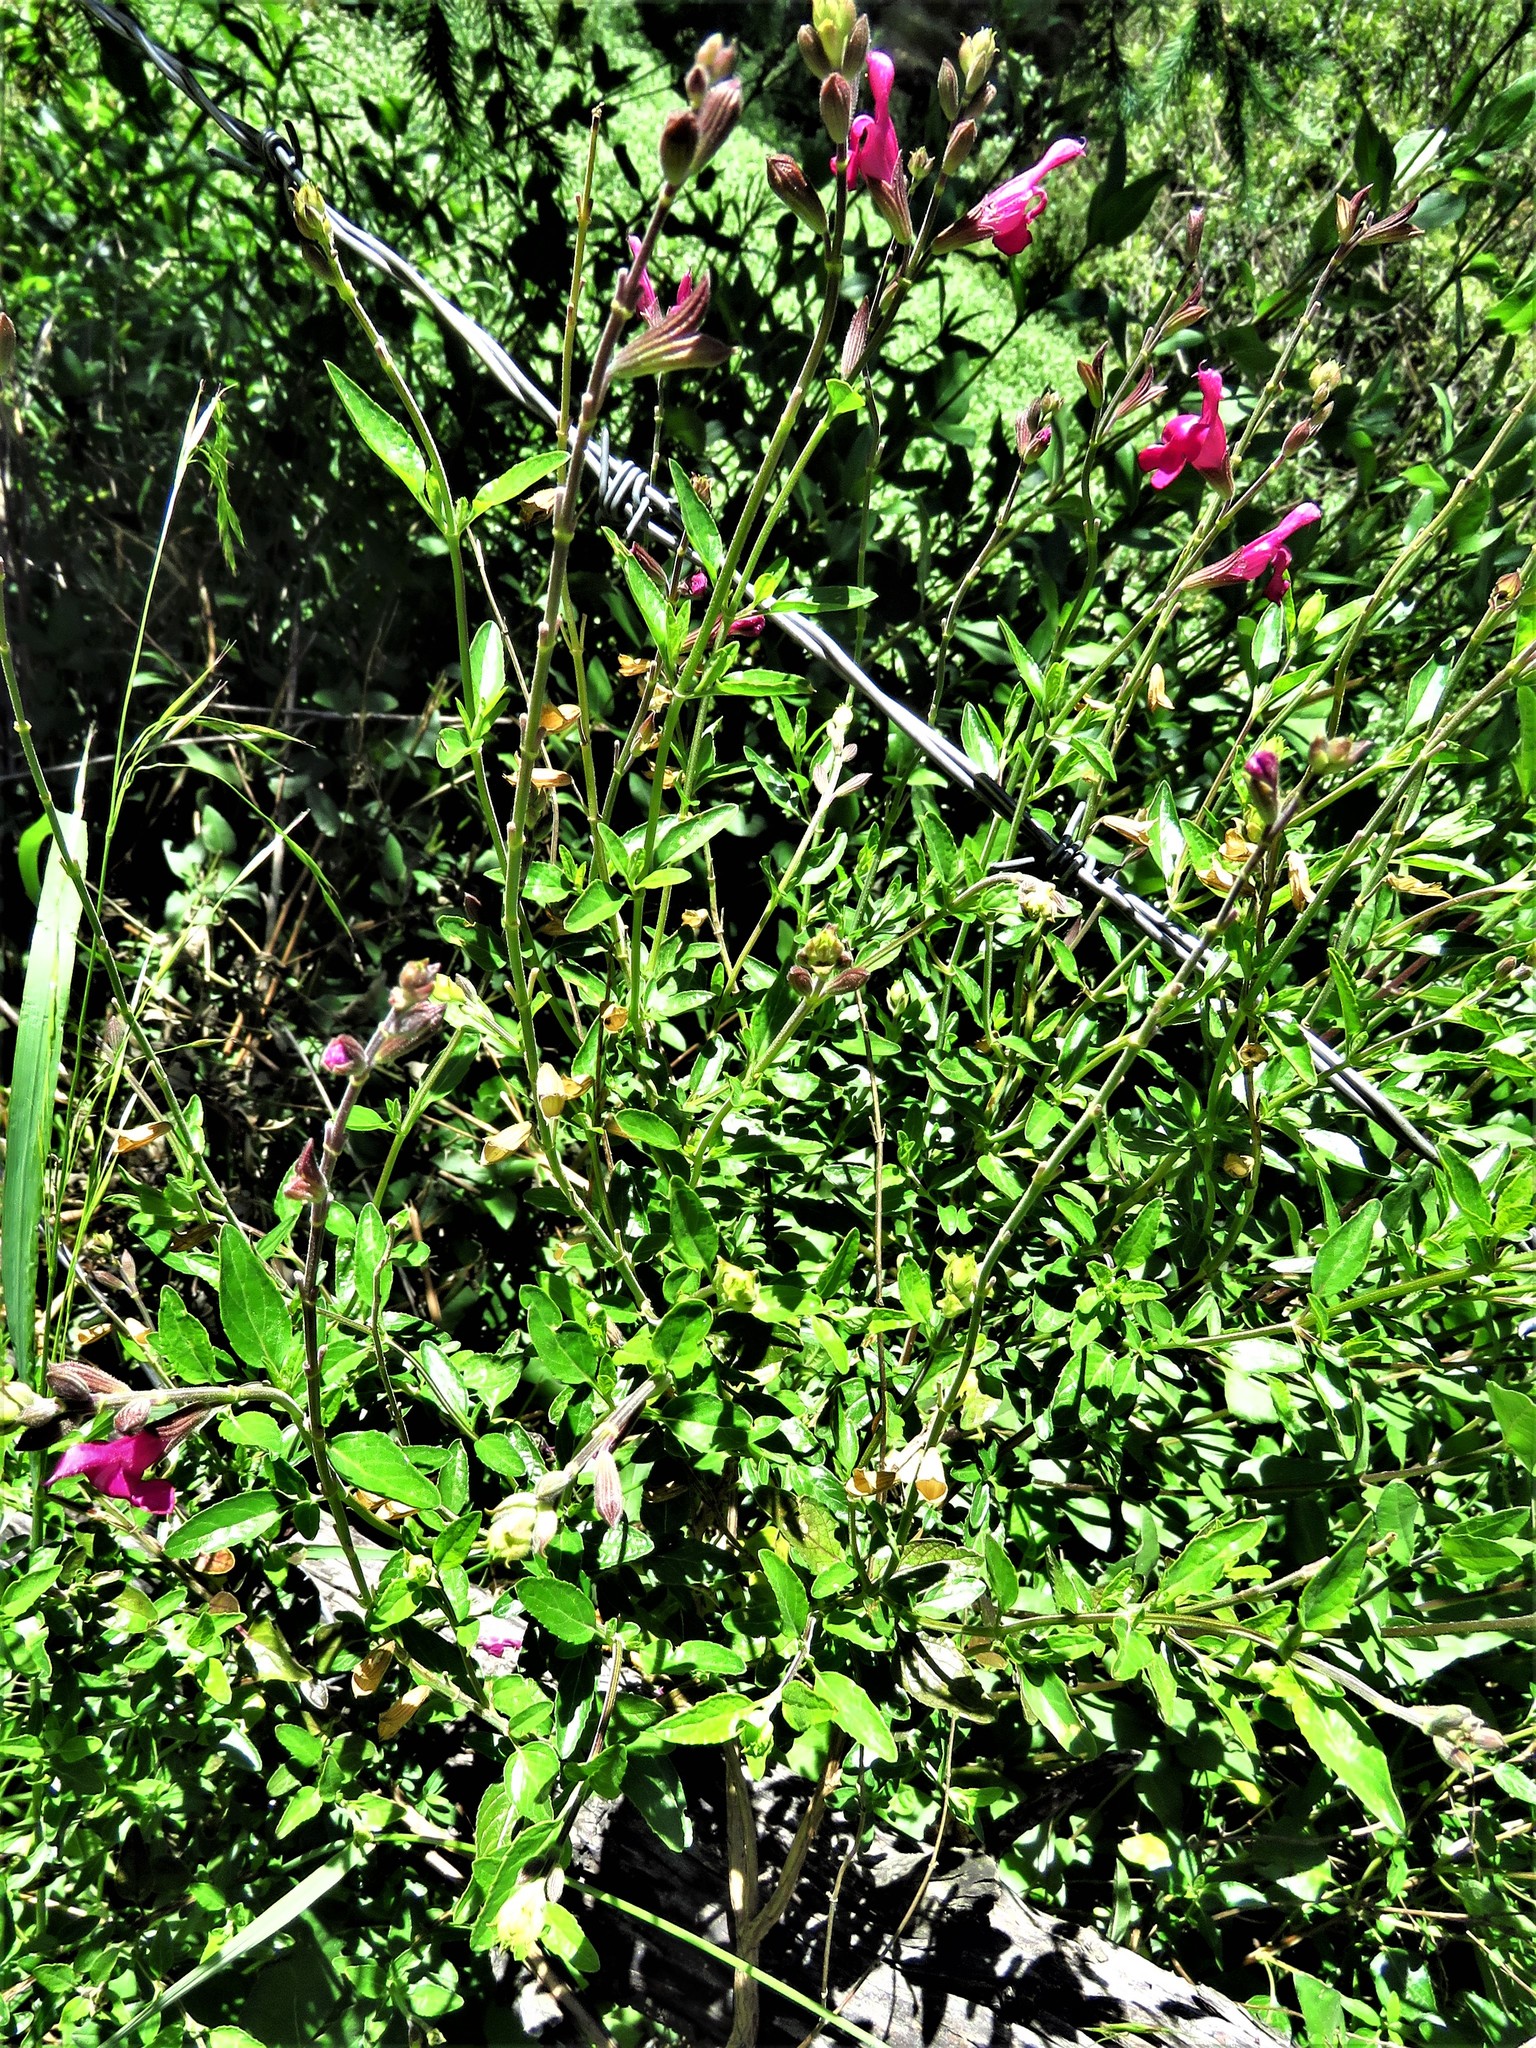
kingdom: Plantae
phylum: Tracheophyta
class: Magnoliopsida
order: Lamiales
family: Lamiaceae
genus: Salvia
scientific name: Salvia greggii
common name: Autumn sage
